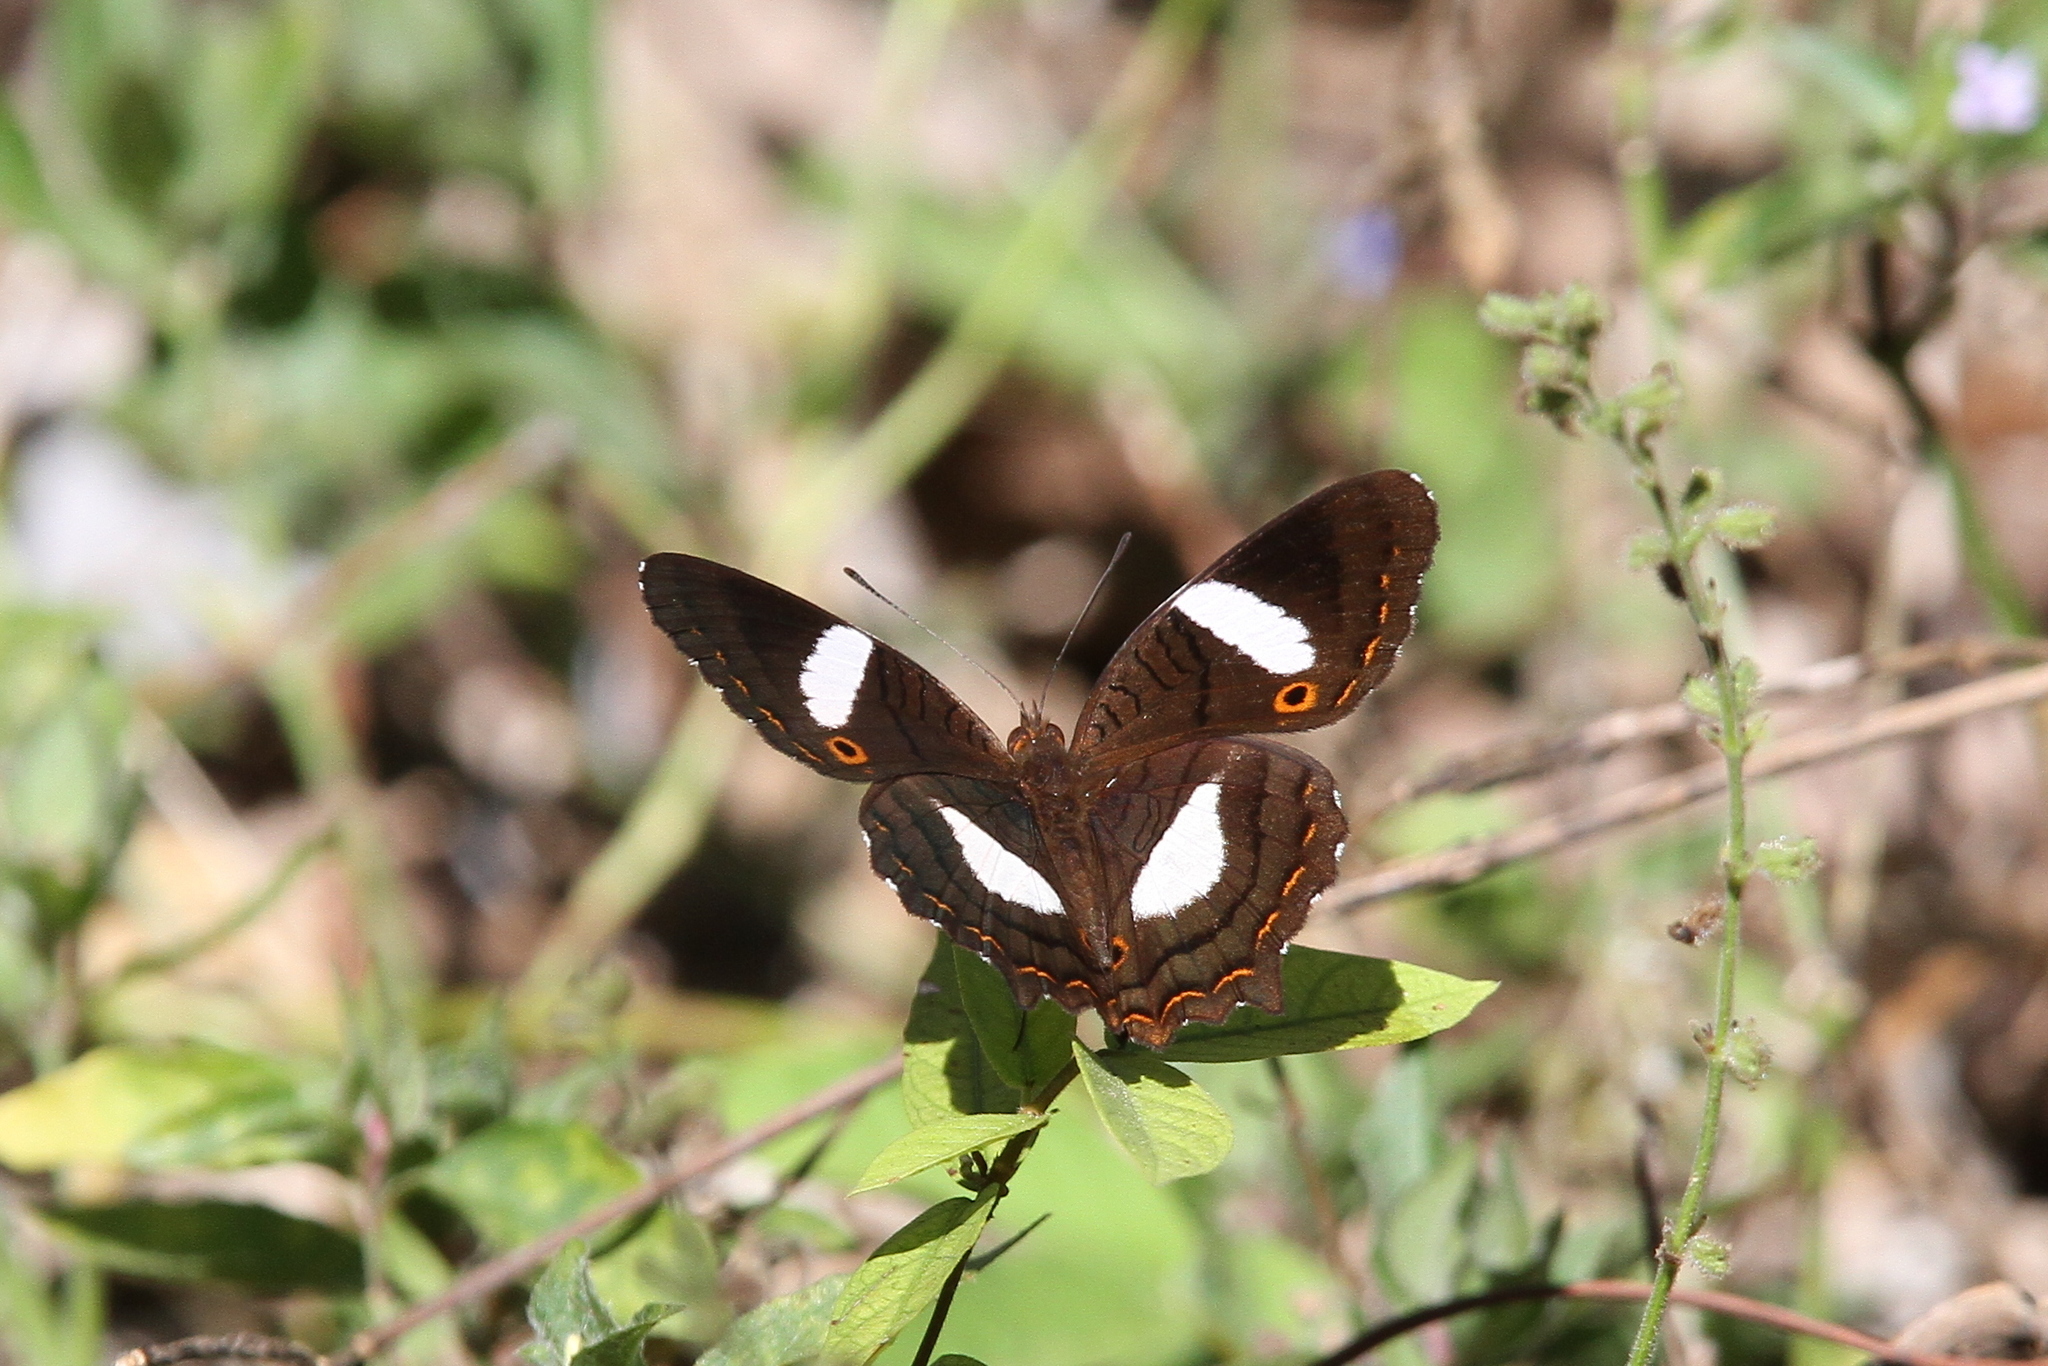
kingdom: Animalia
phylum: Arthropoda
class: Insecta
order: Lepidoptera
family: Nymphalidae
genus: Anartia
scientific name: Anartia lytraea
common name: Nymphalid moth
